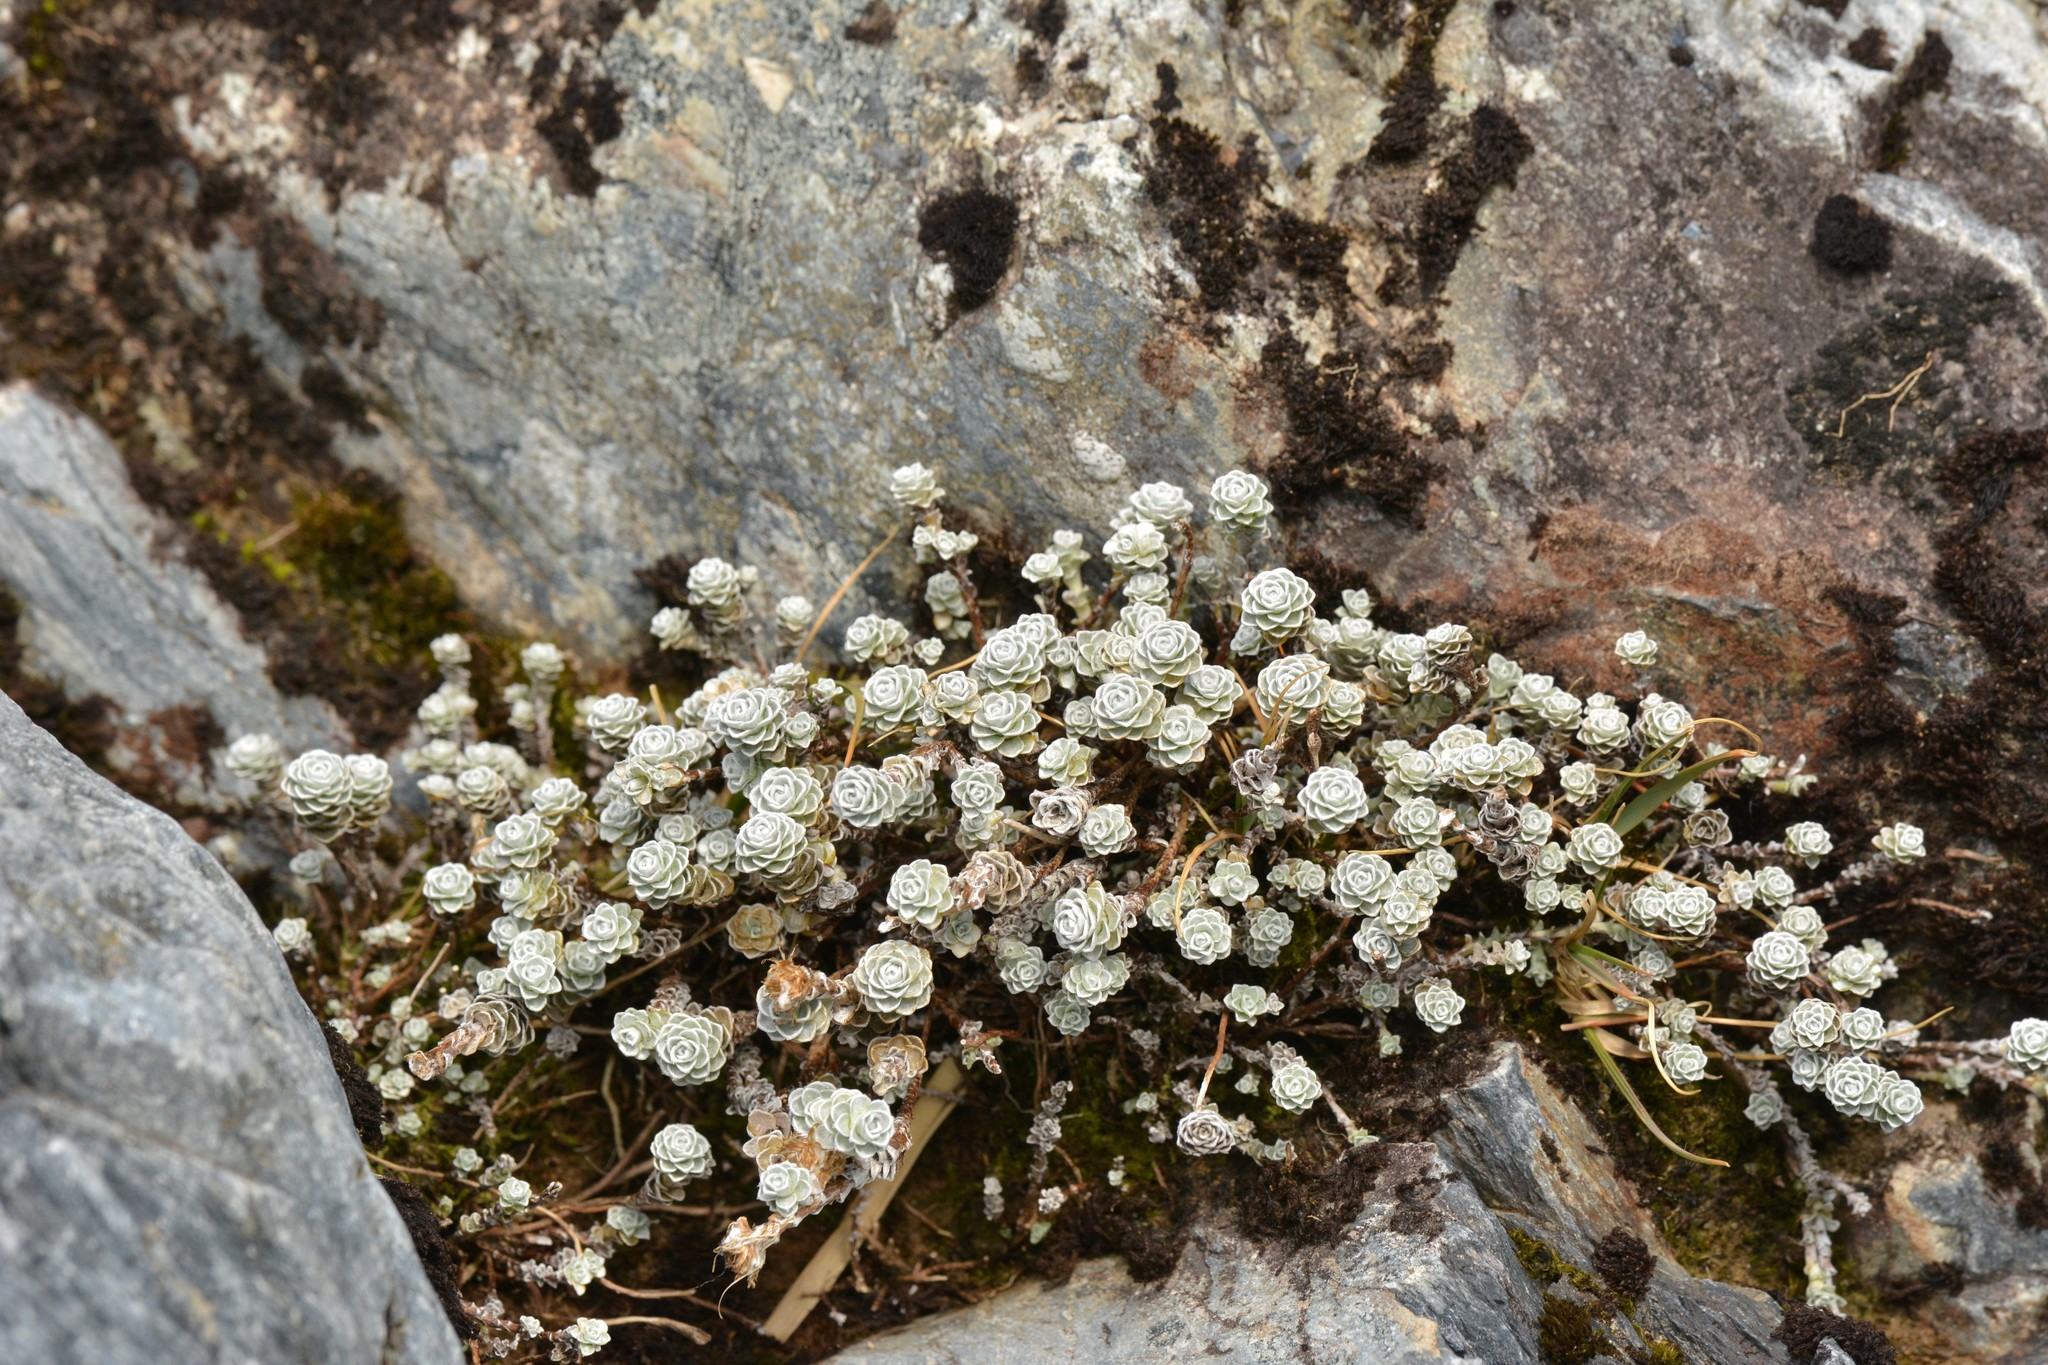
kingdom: Plantae
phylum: Tracheophyta
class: Magnoliopsida
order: Asterales
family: Asteraceae
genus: Leucogenes
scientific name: Leucogenes grandiceps
